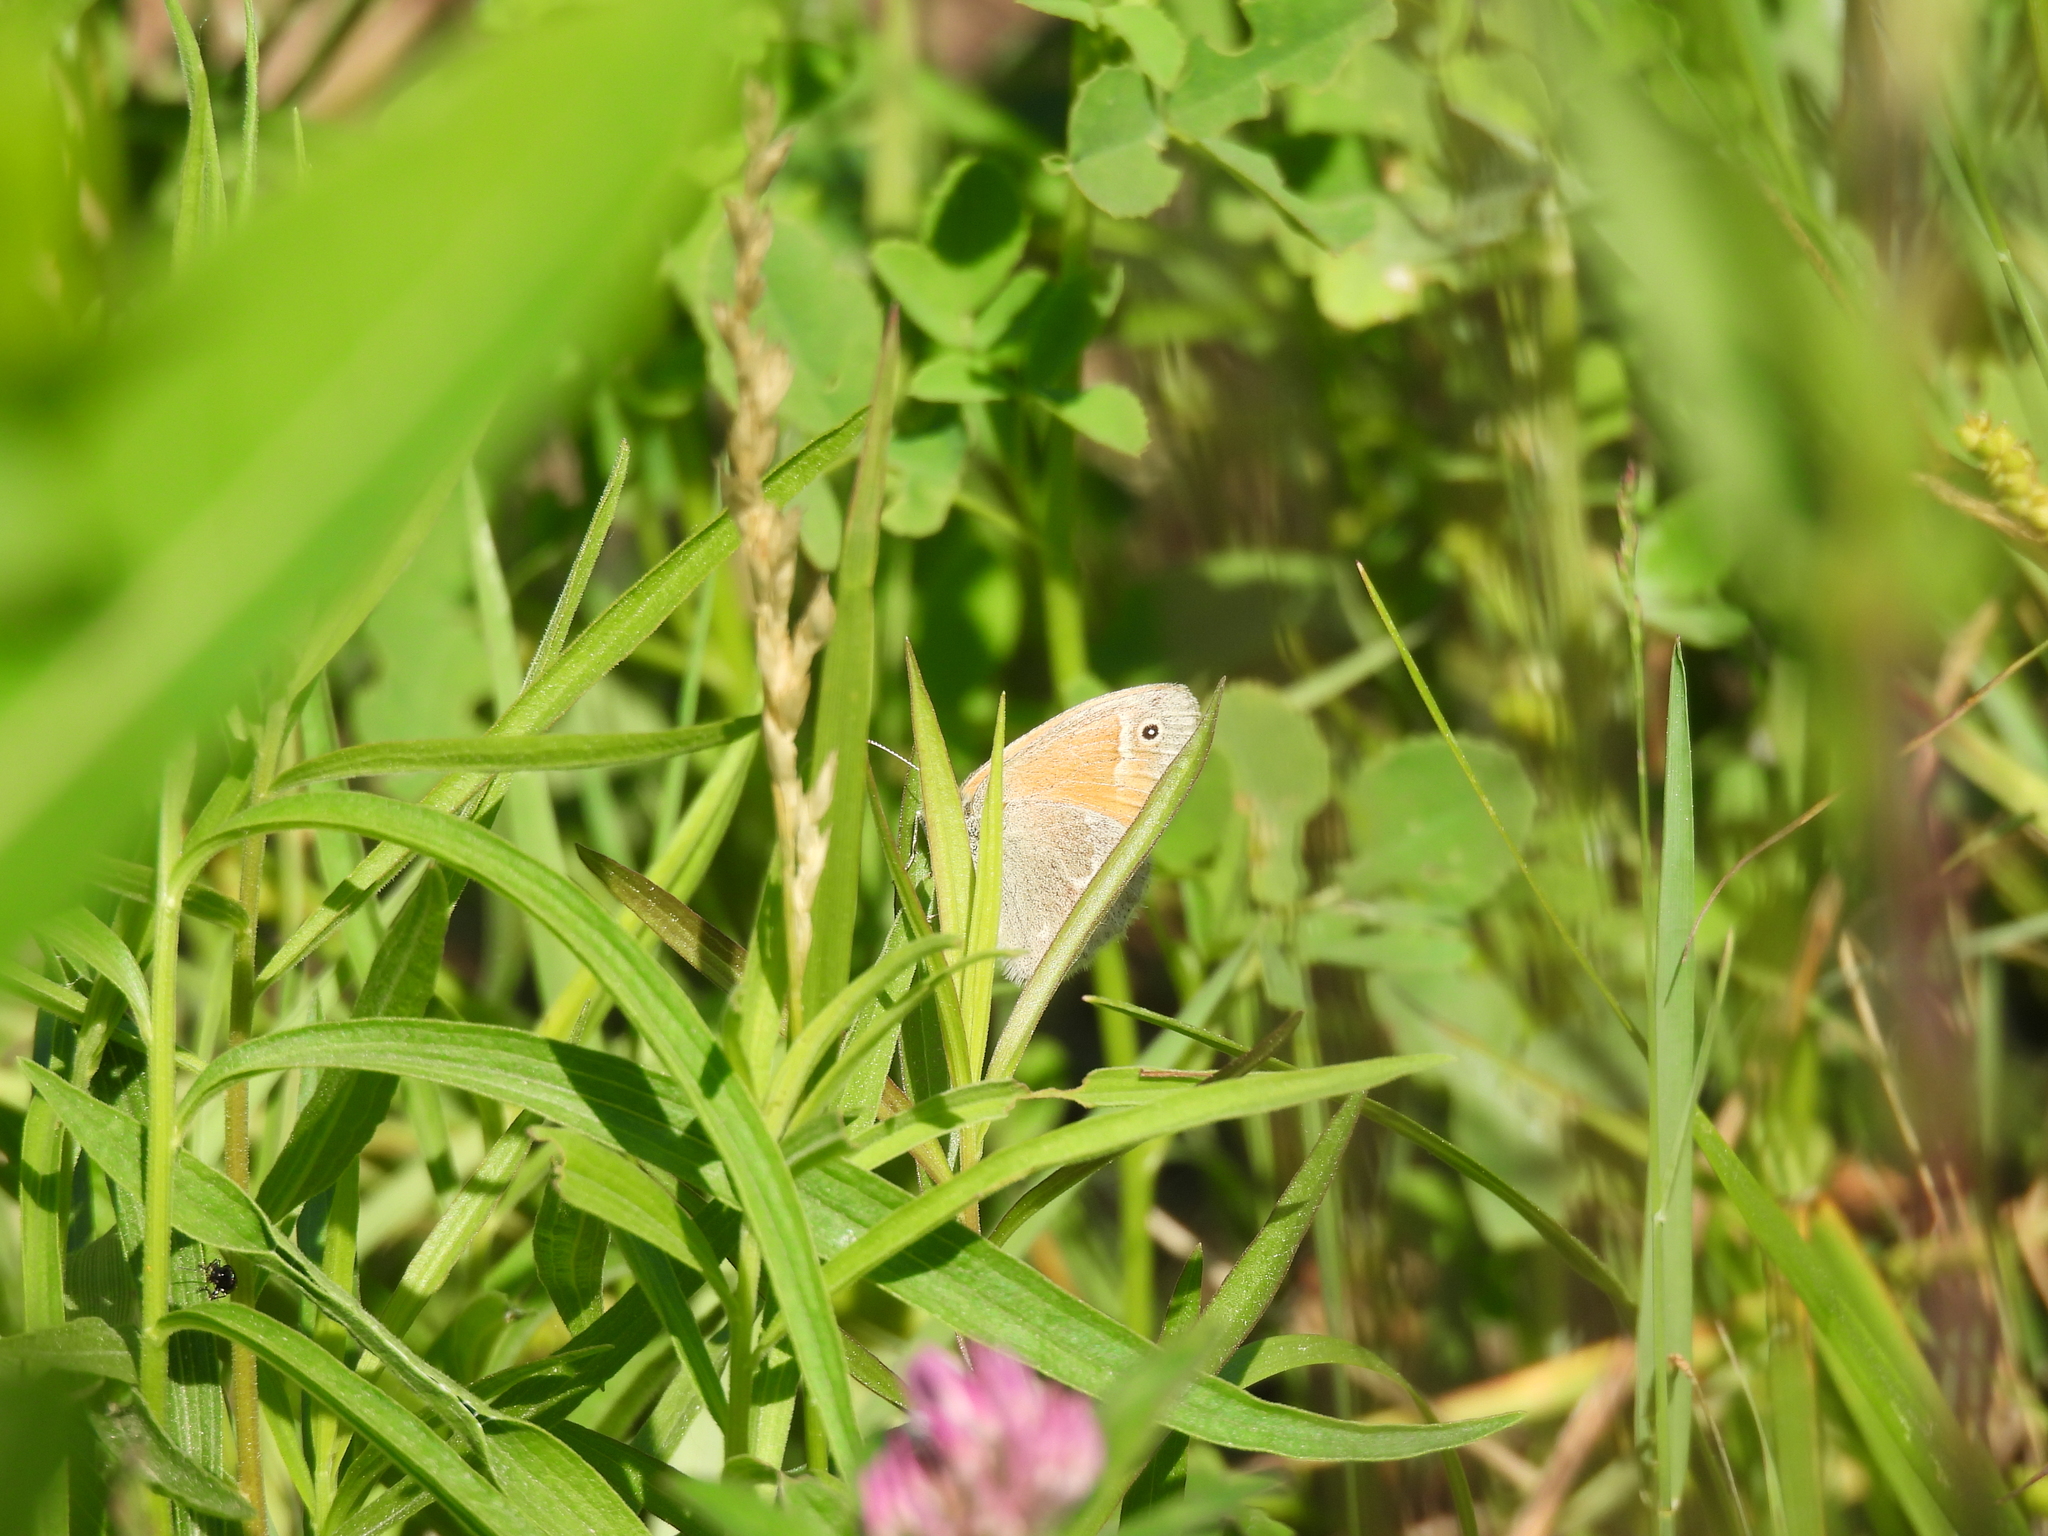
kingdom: Animalia
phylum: Arthropoda
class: Insecta
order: Lepidoptera
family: Nymphalidae
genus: Coenonympha
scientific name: Coenonympha california
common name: Common ringlet
